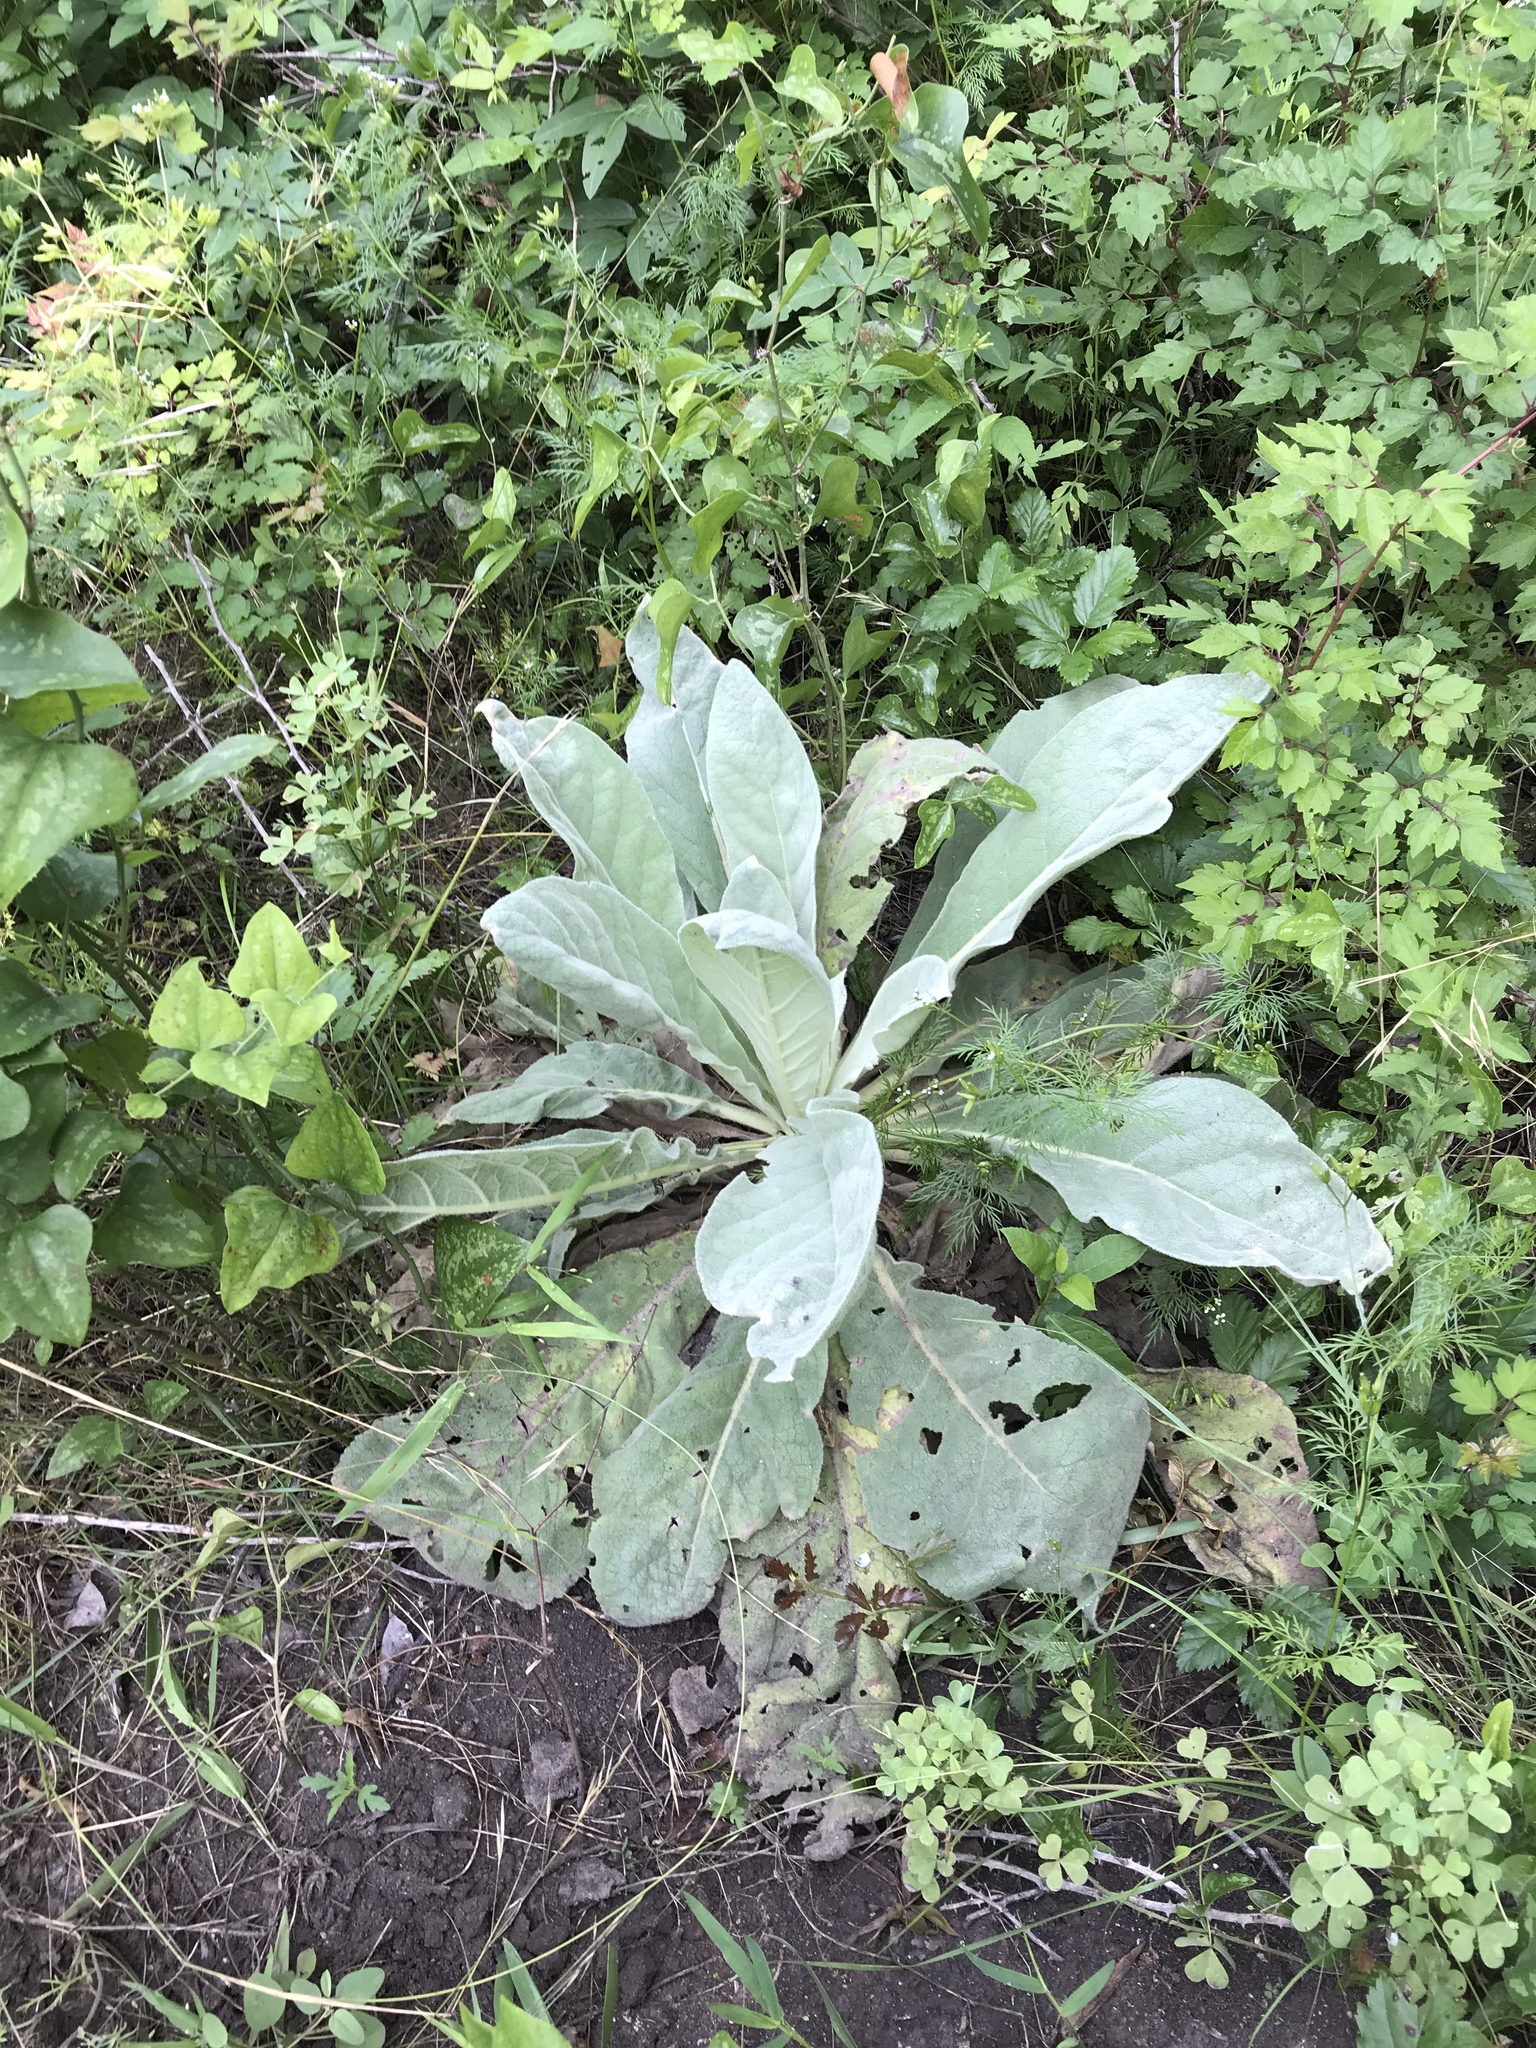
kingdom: Plantae
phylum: Tracheophyta
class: Magnoliopsida
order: Lamiales
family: Scrophulariaceae
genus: Verbascum
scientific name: Verbascum thapsus
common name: Common mullein
